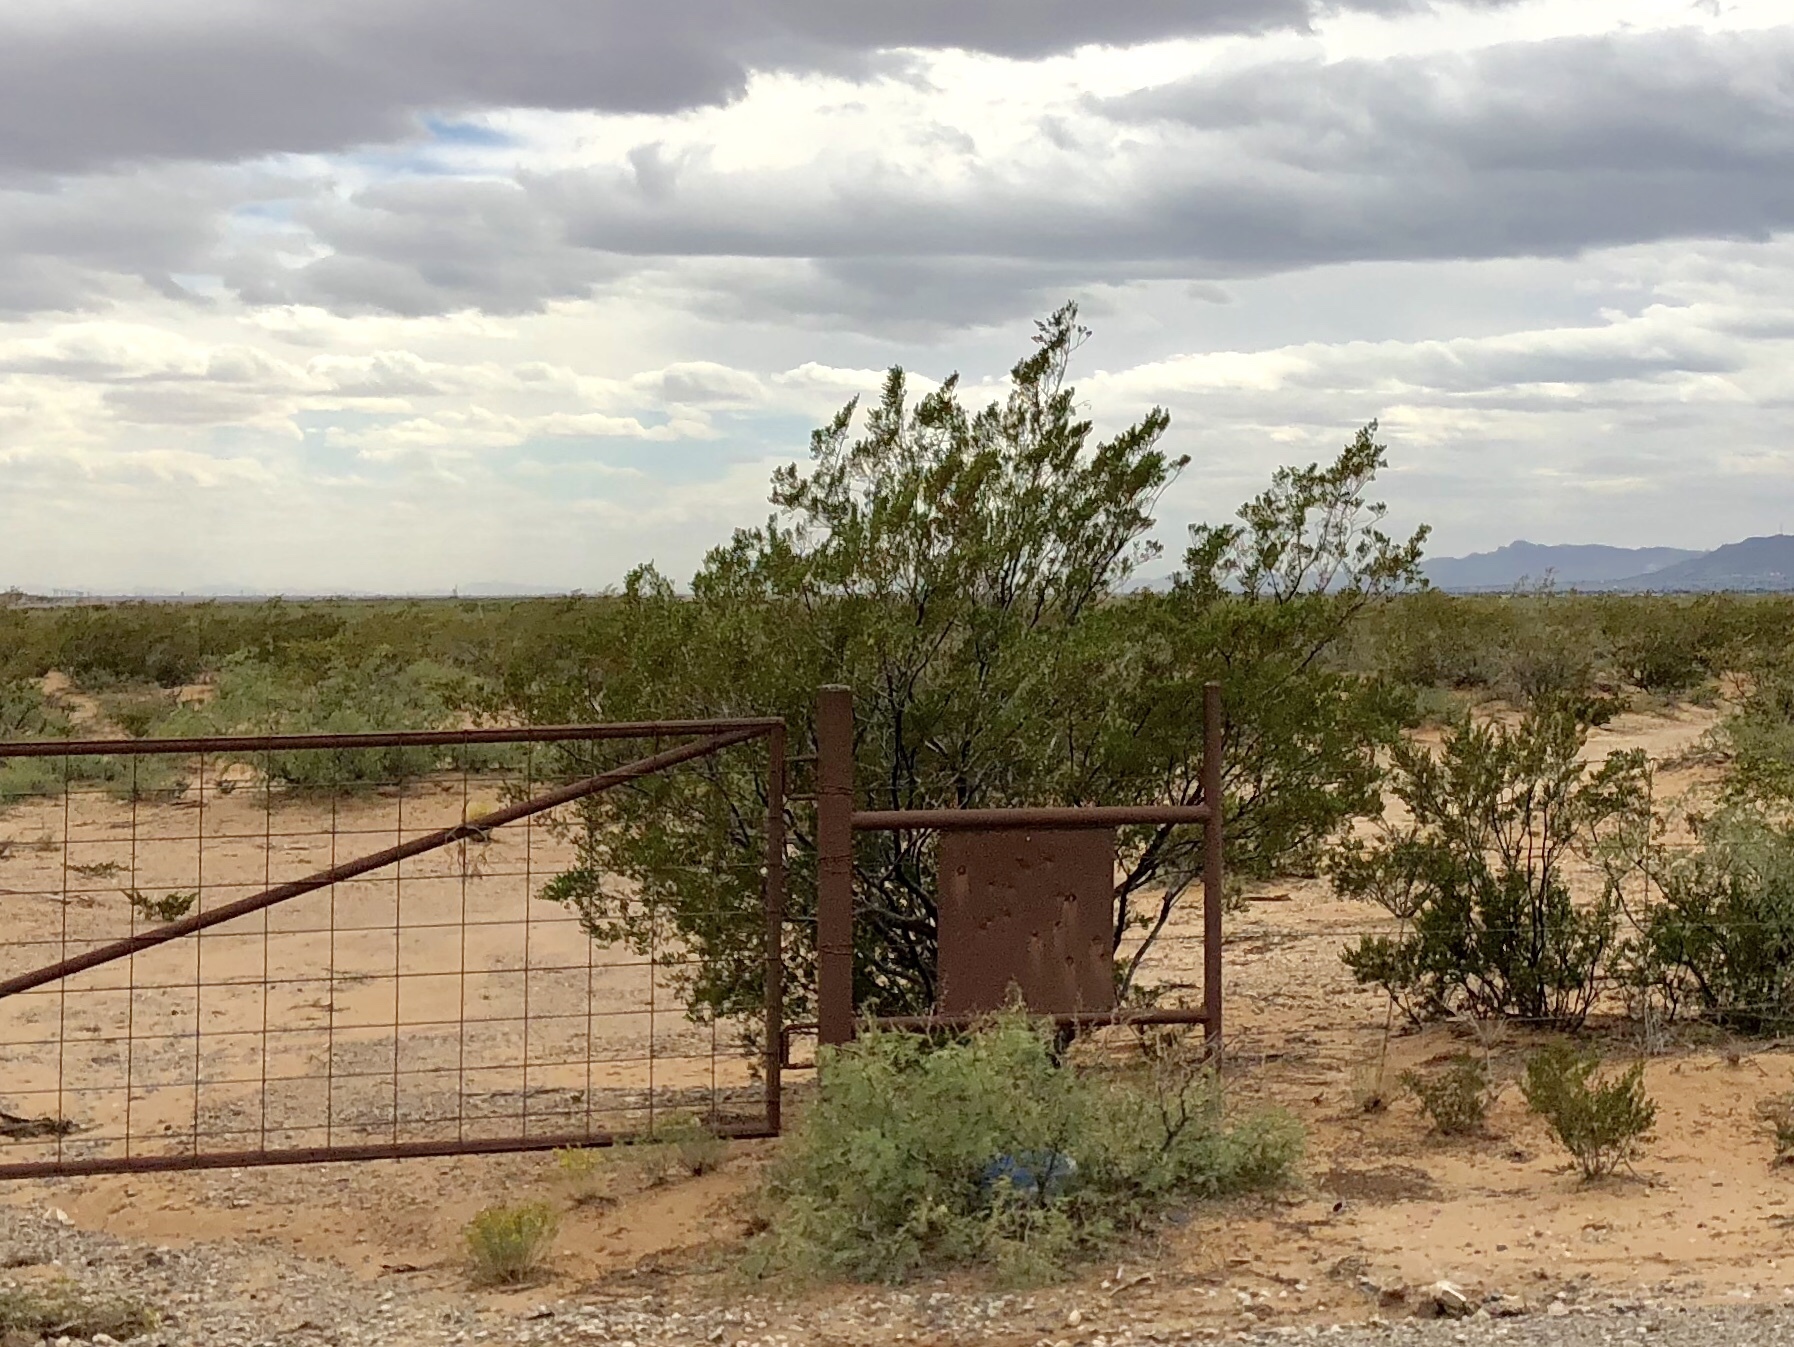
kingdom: Plantae
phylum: Tracheophyta
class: Magnoliopsida
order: Zygophyllales
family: Zygophyllaceae
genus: Larrea
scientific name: Larrea tridentata
